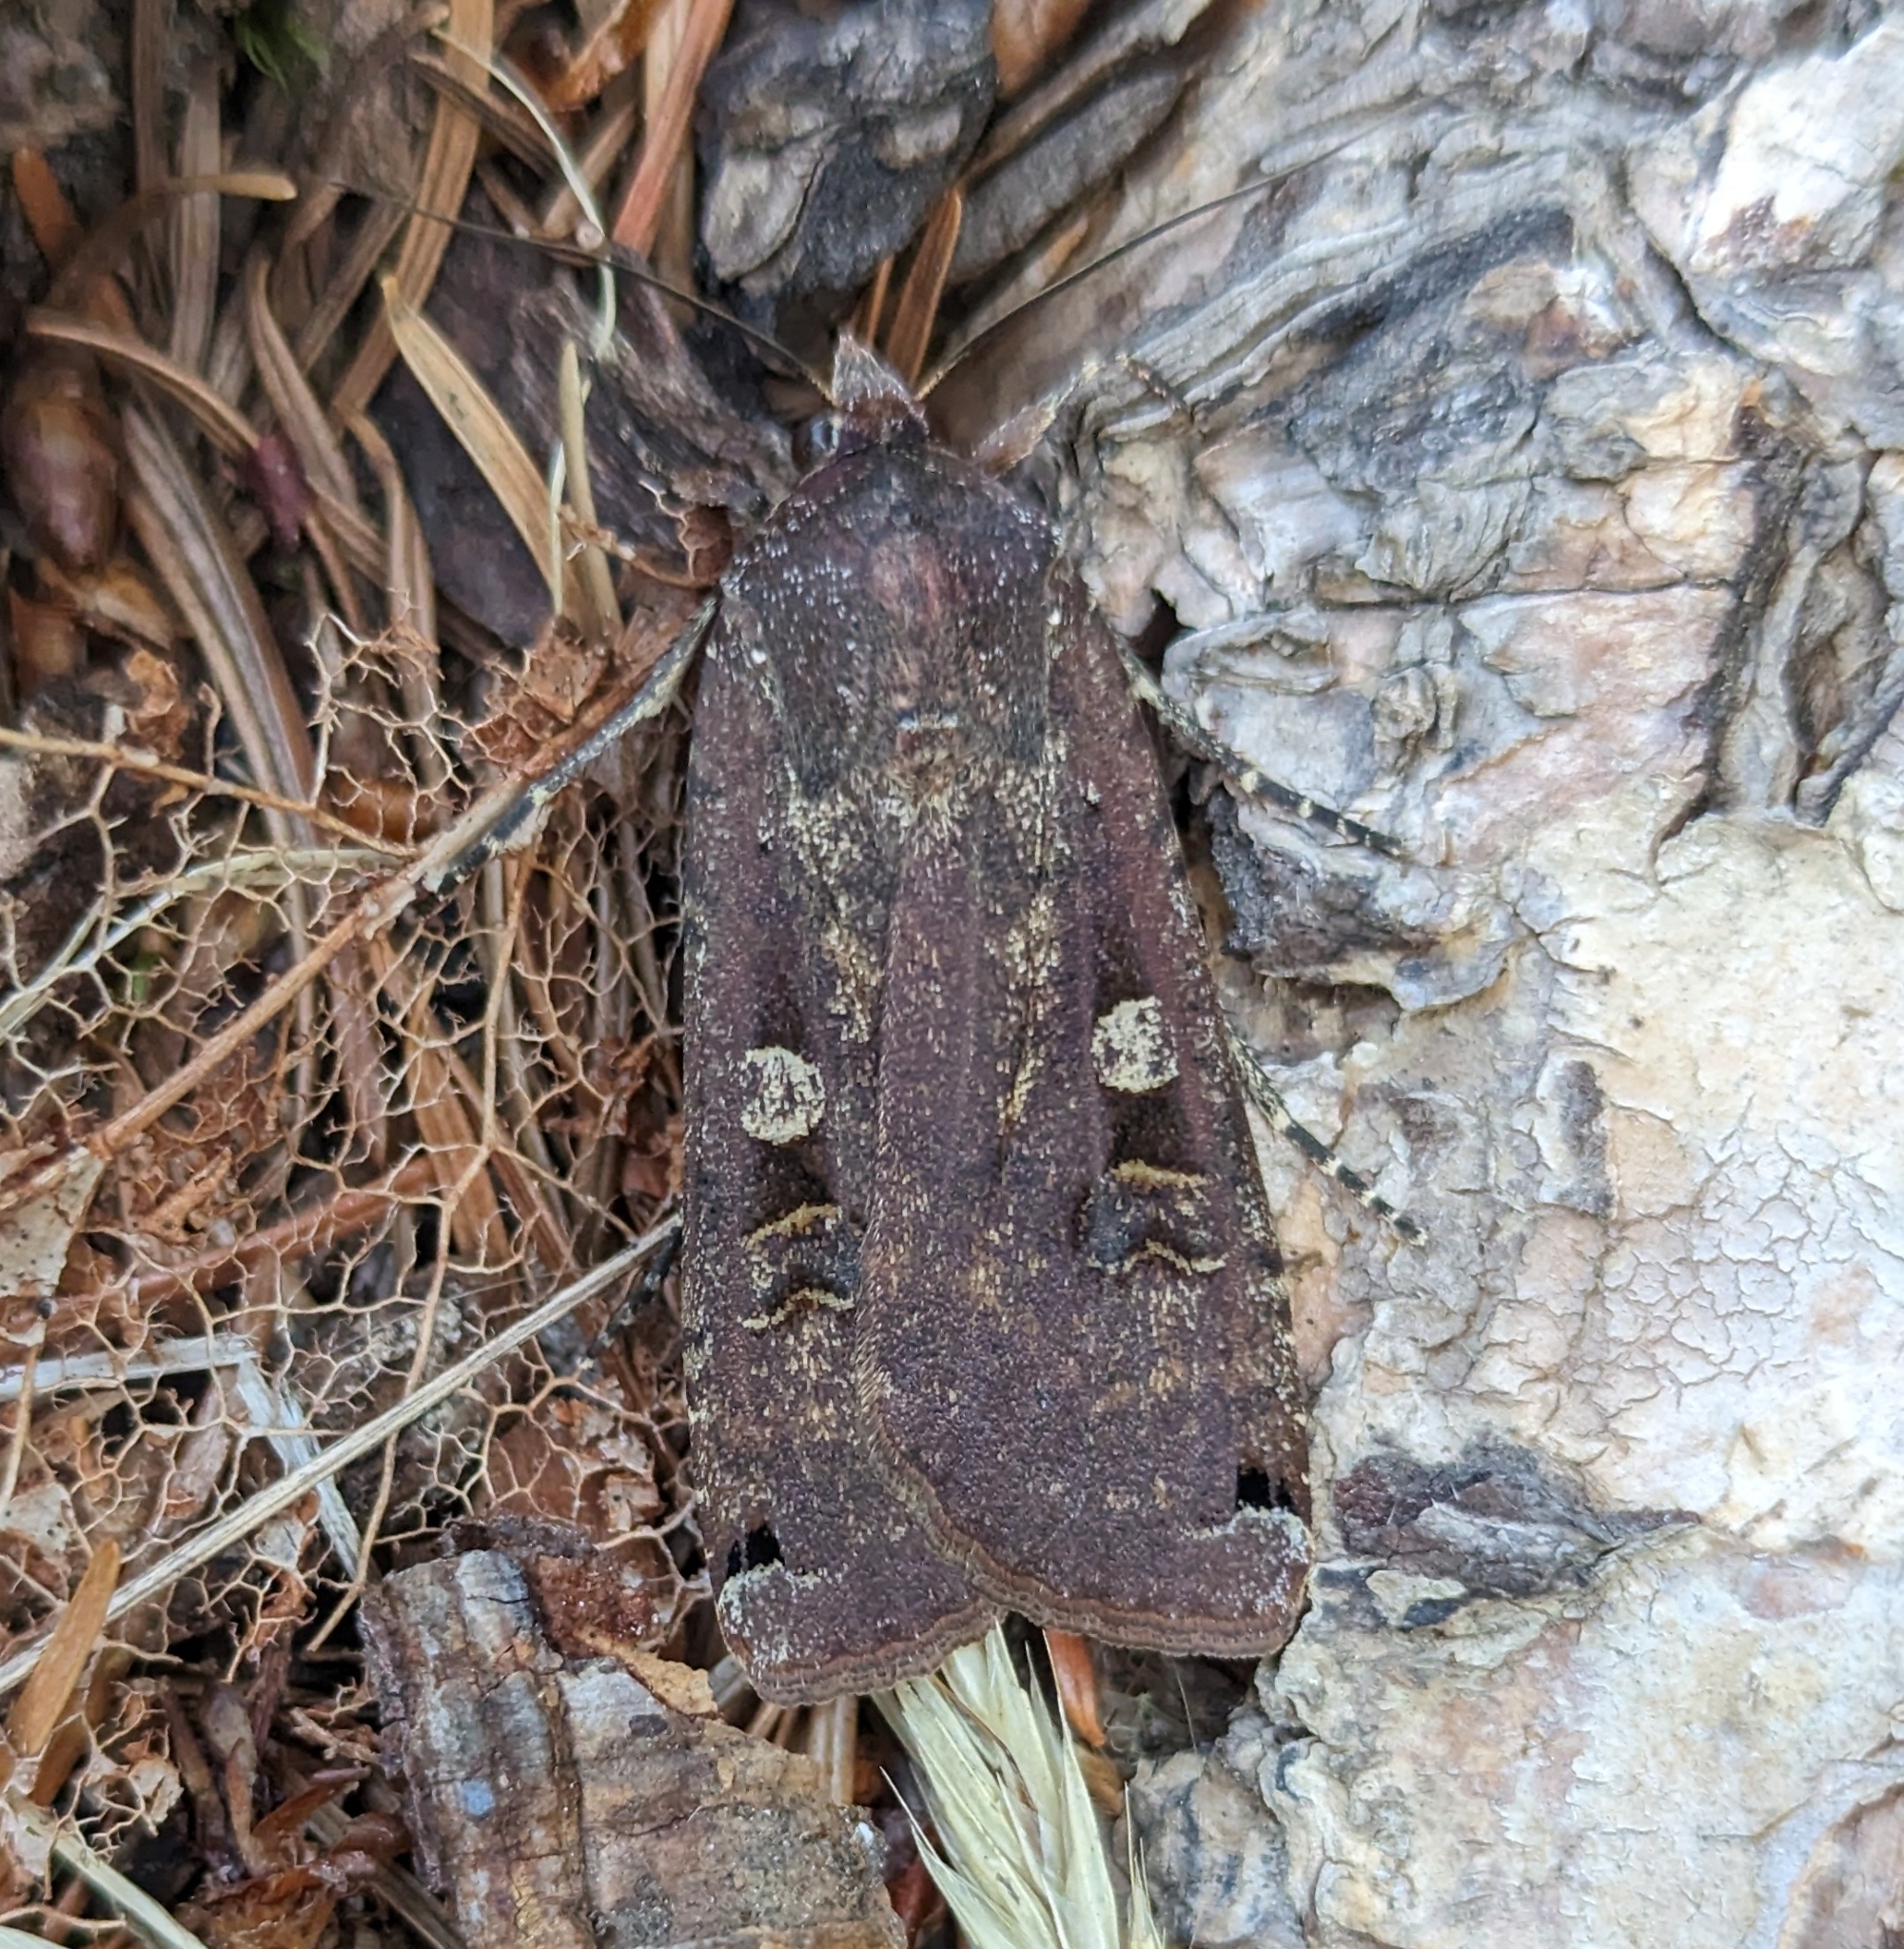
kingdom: Animalia
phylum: Arthropoda
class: Insecta
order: Lepidoptera
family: Noctuidae
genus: Noctua
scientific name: Noctua pronuba
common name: Large yellow underwing
